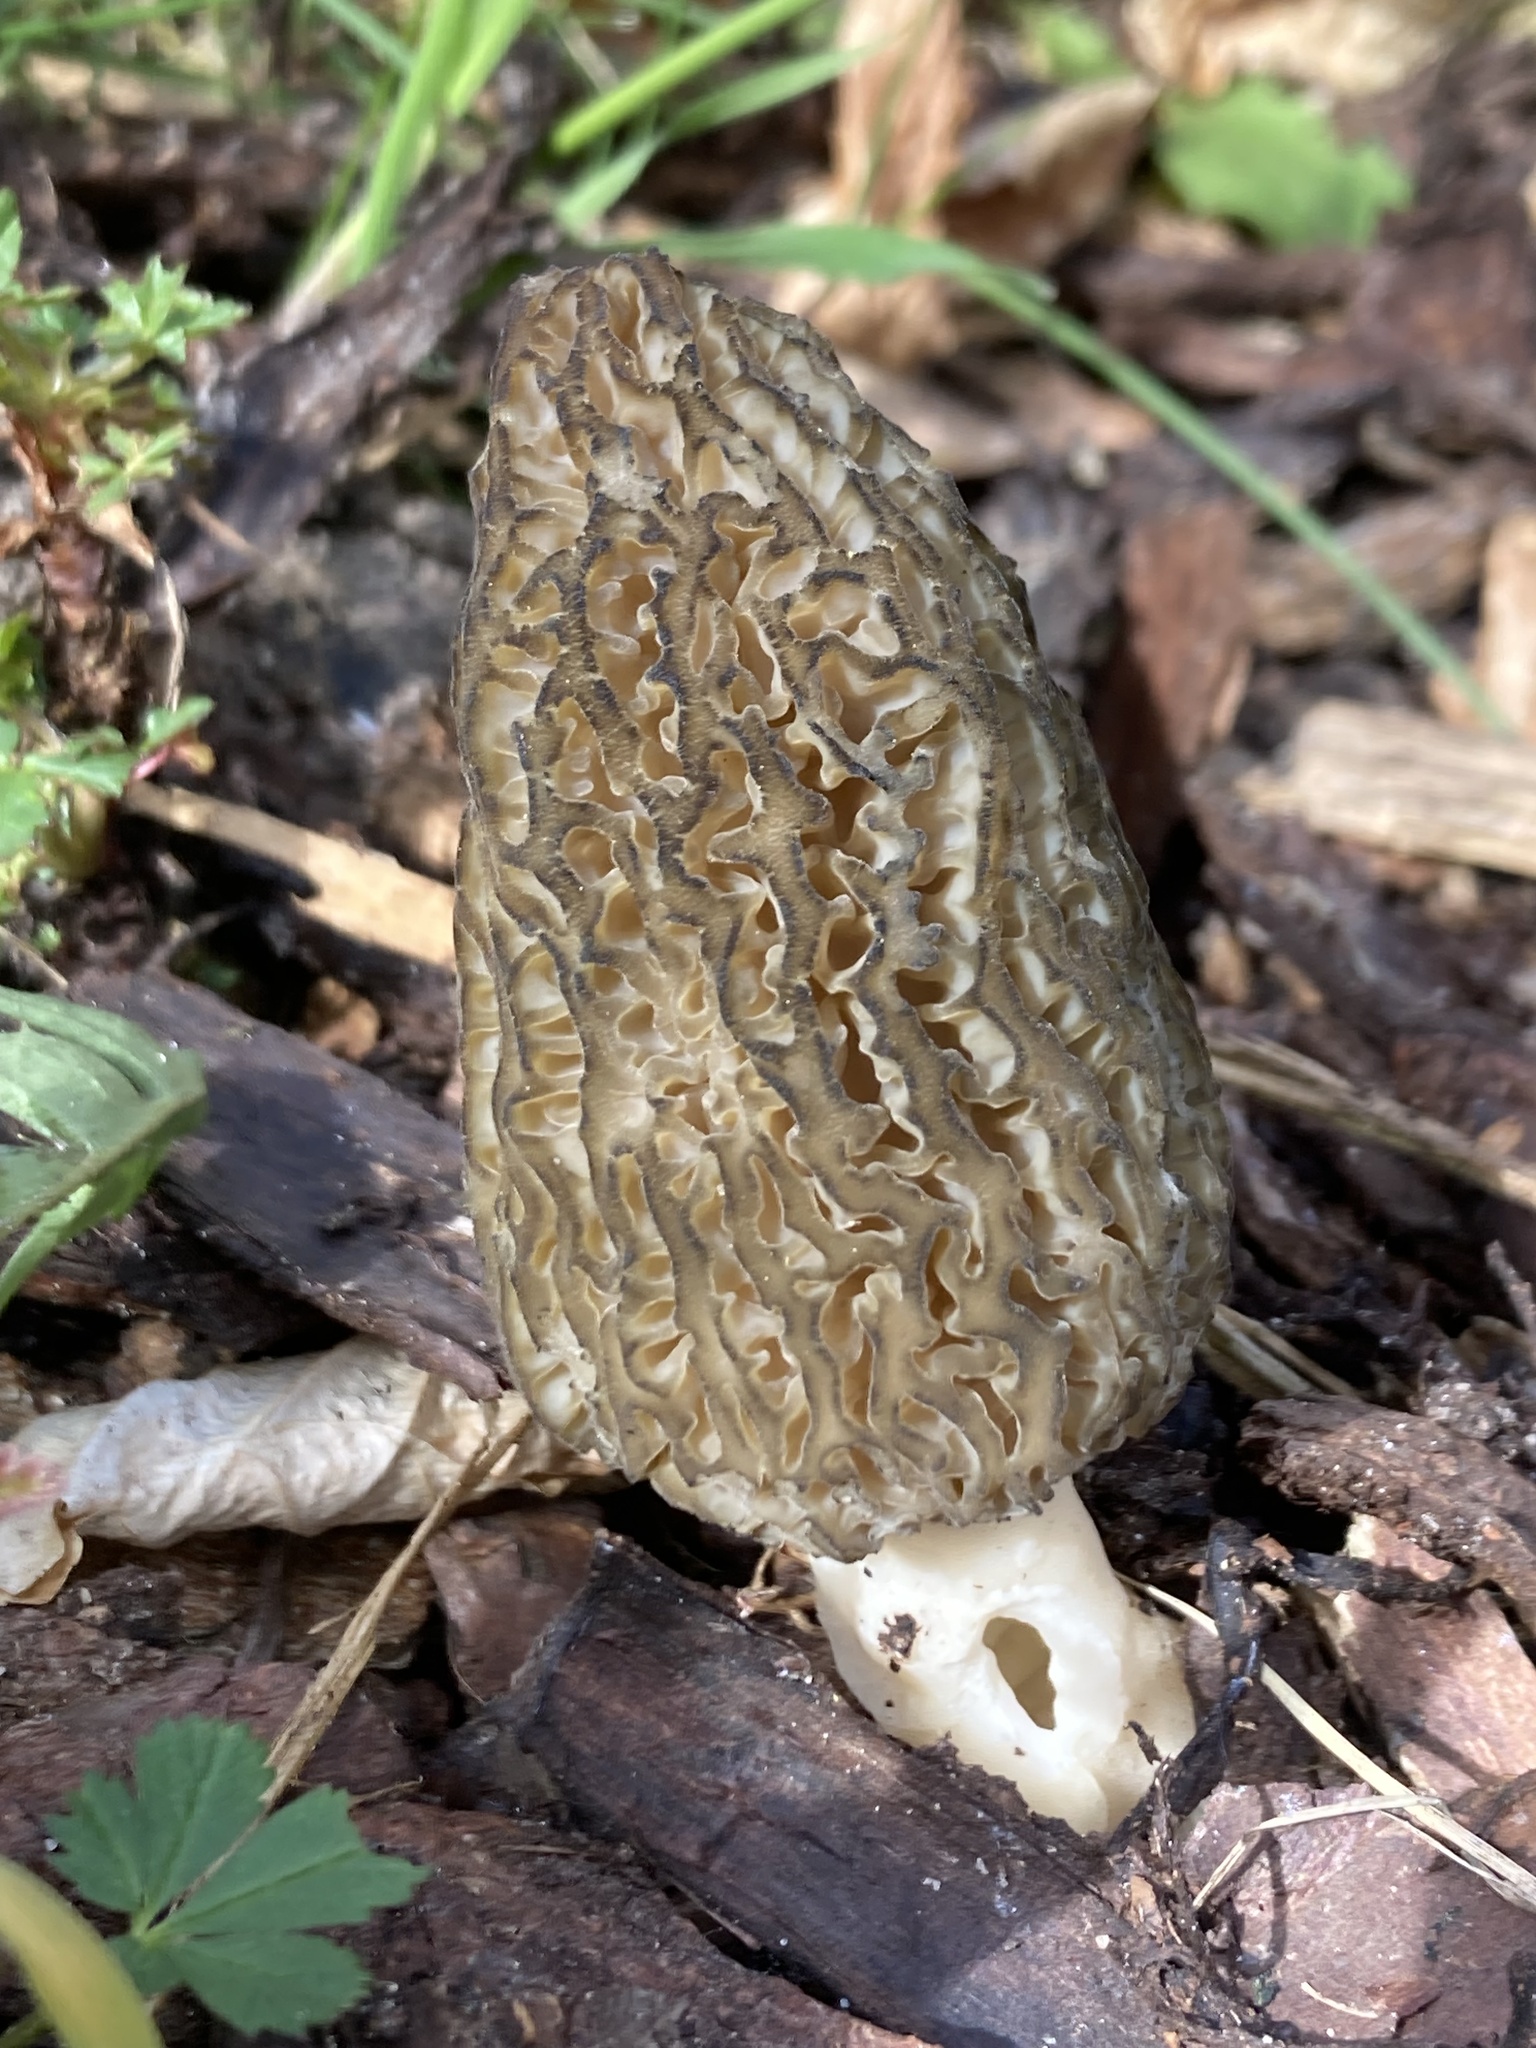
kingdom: Fungi
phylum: Ascomycota
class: Pezizomycetes
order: Pezizales
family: Morchellaceae
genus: Morchella
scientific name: Morchella importuna
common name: Landscaping black morel
